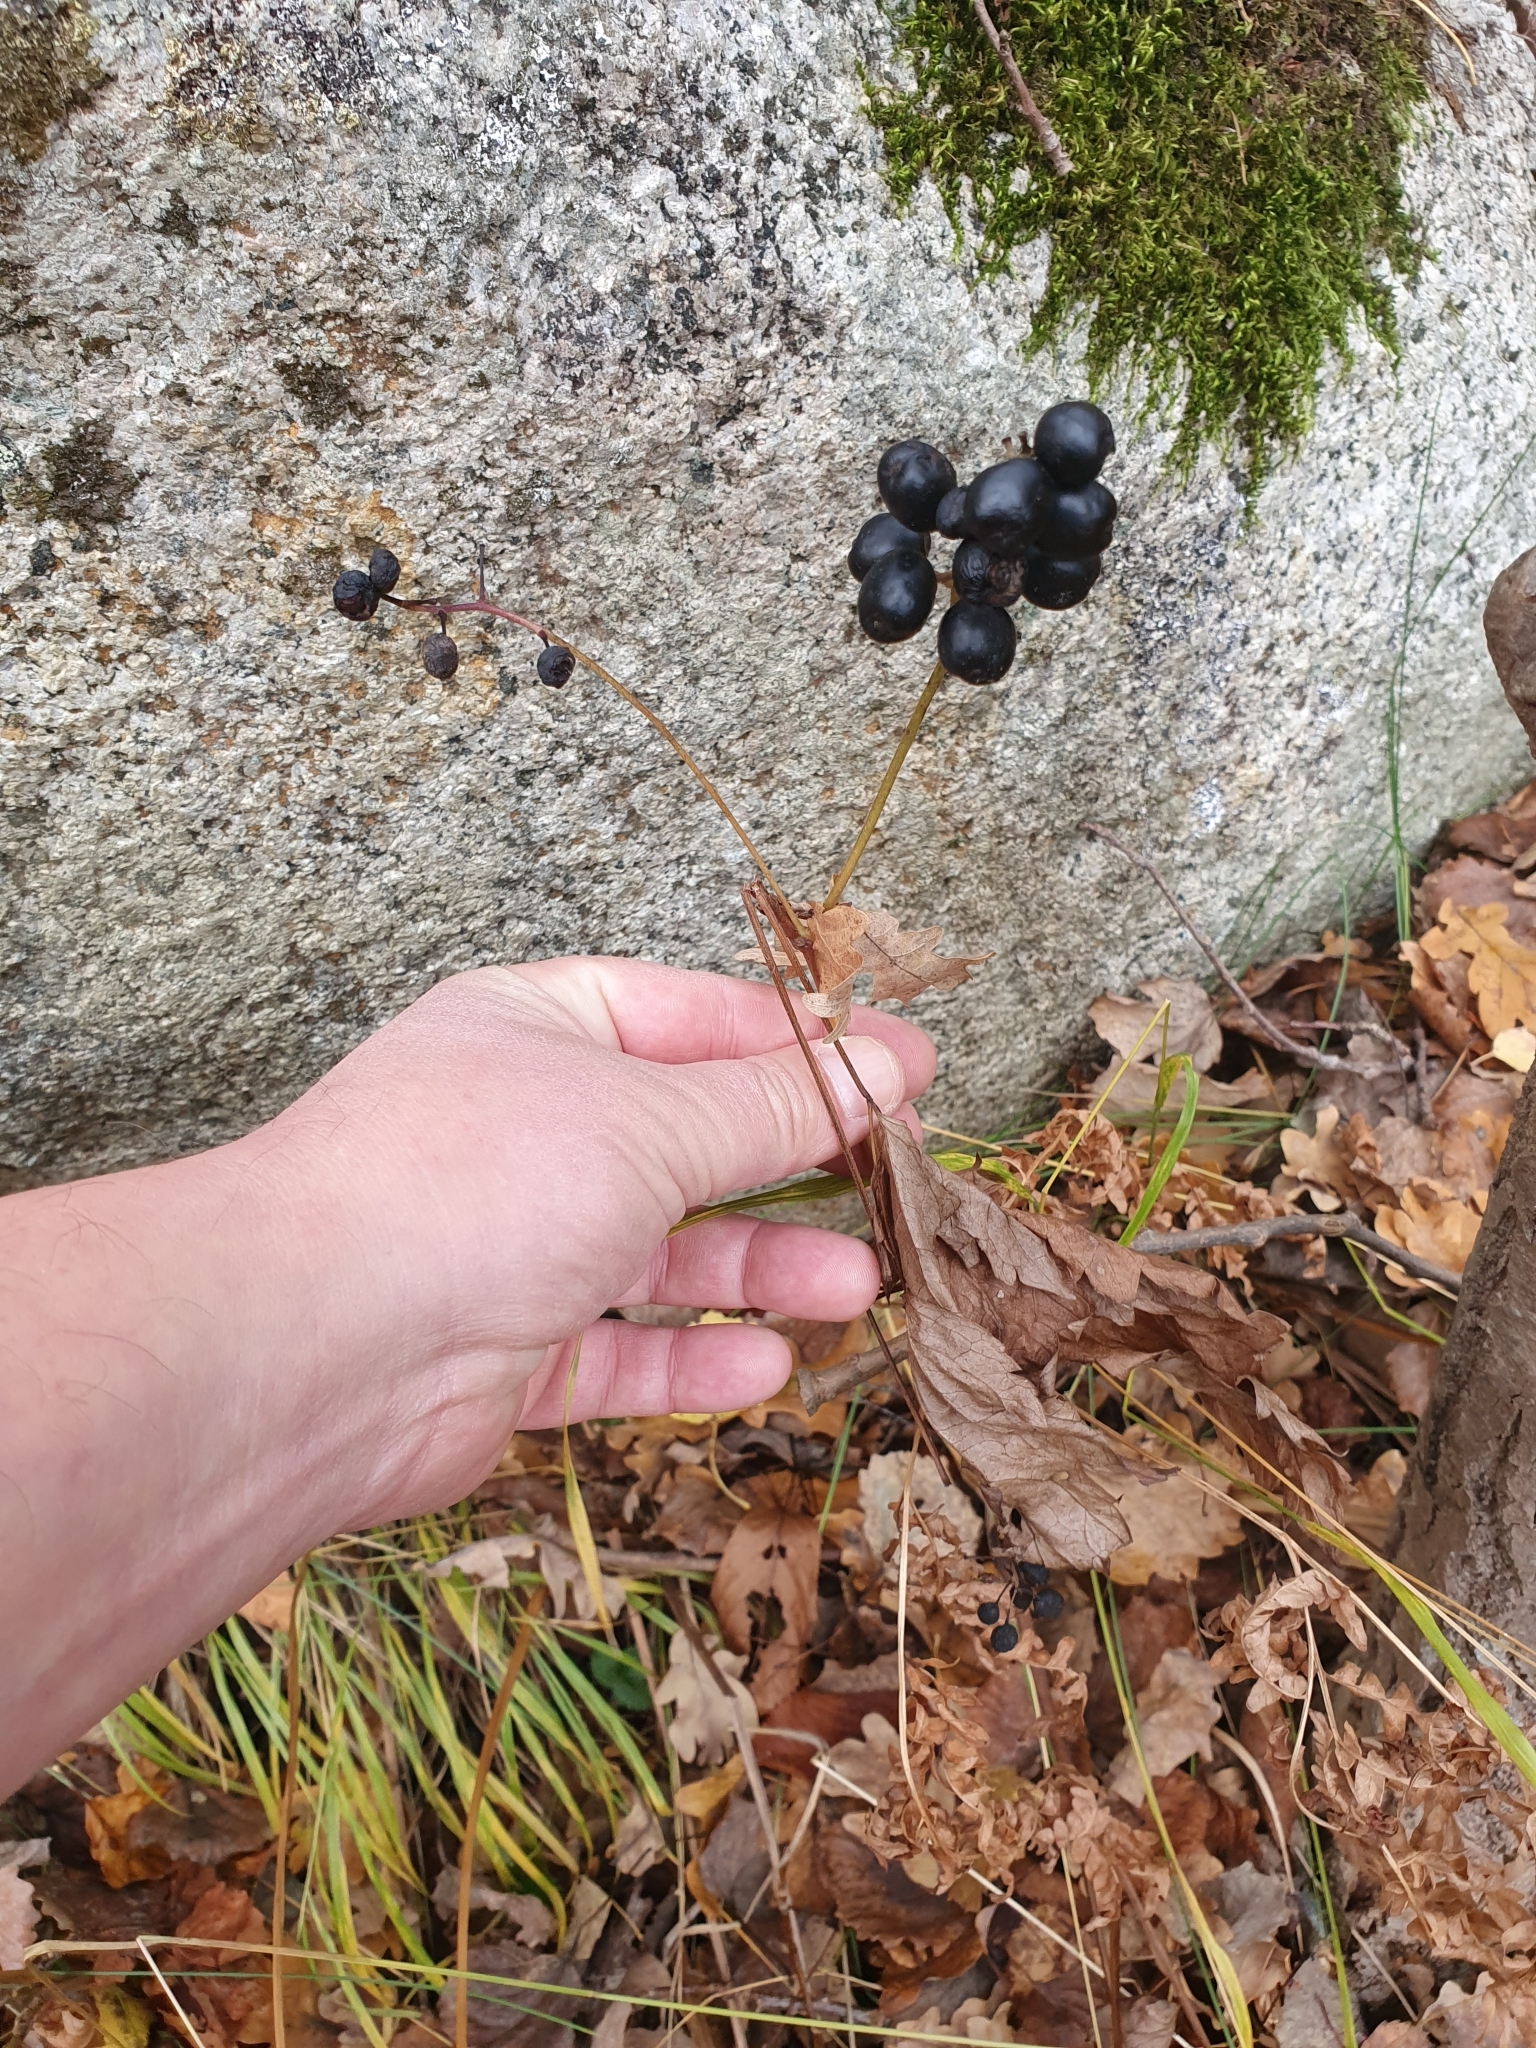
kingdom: Plantae
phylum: Tracheophyta
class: Magnoliopsida
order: Ranunculales
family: Ranunculaceae
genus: Actaea
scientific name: Actaea spicata
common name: Baneberry
